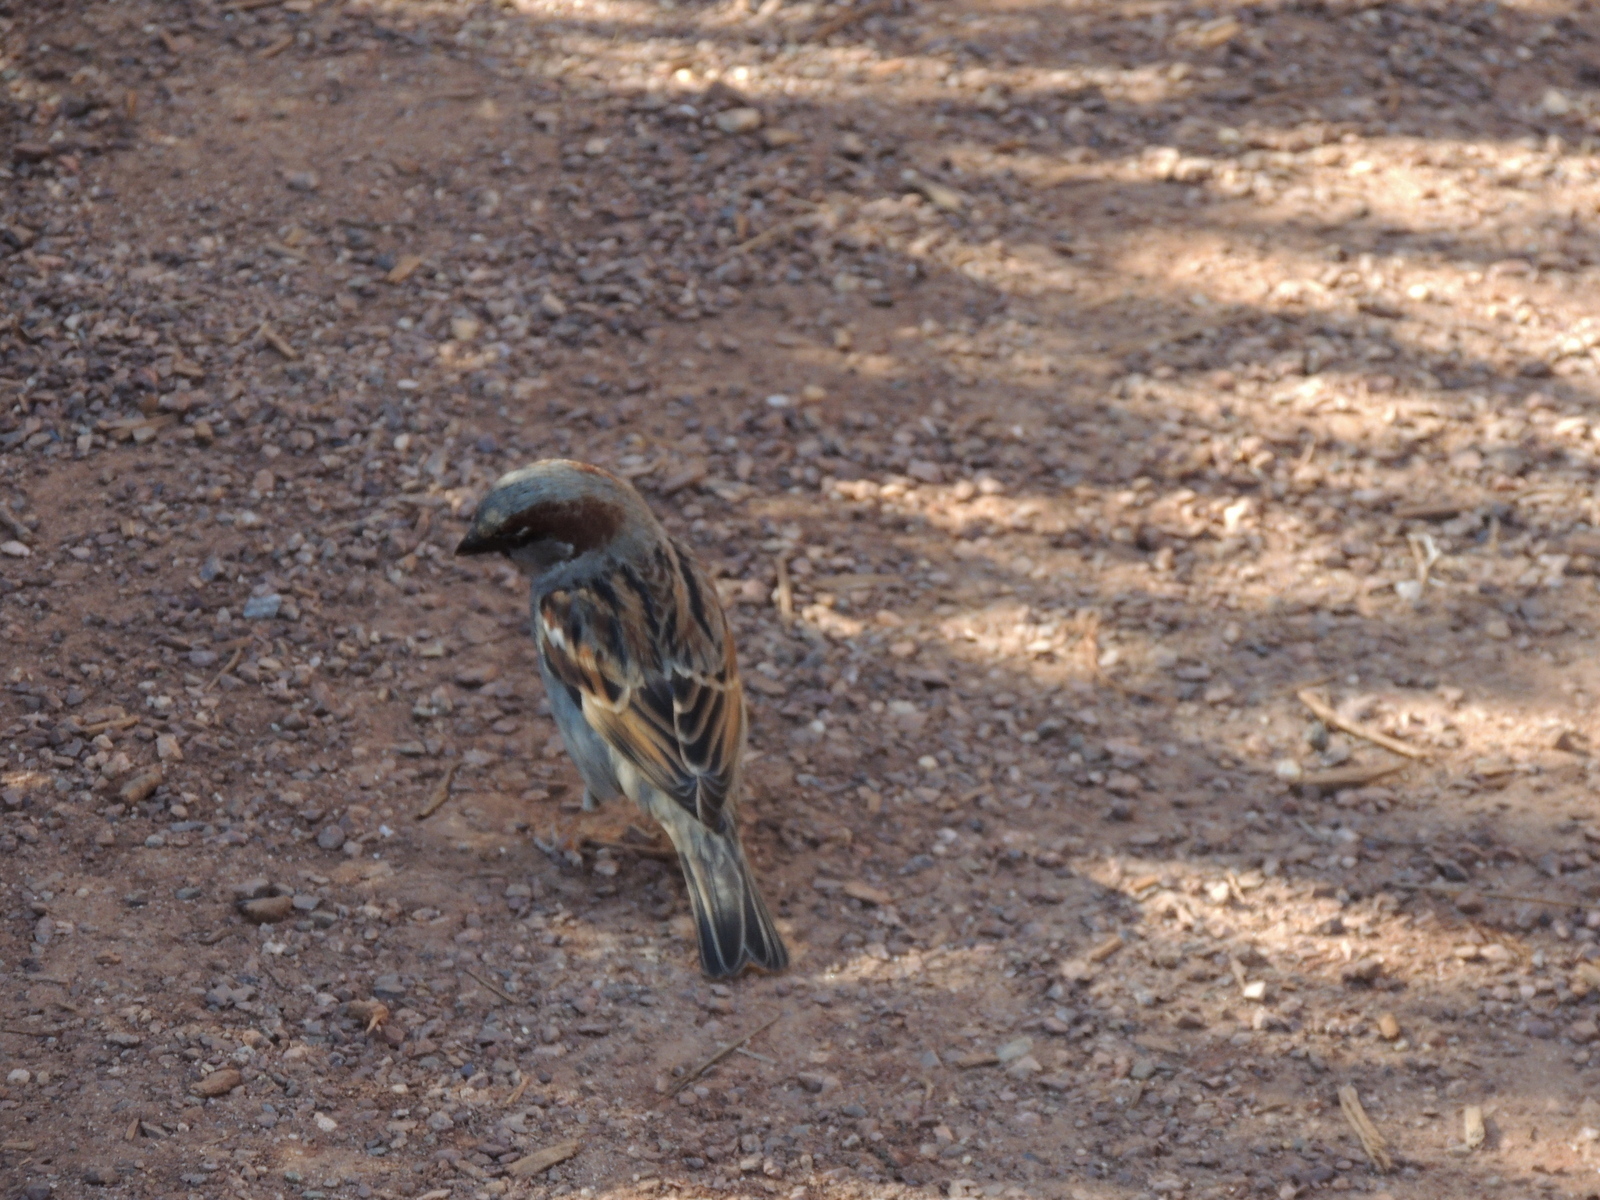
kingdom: Animalia
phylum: Chordata
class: Aves
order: Passeriformes
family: Passeridae
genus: Passer
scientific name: Passer domesticus
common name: House sparrow
